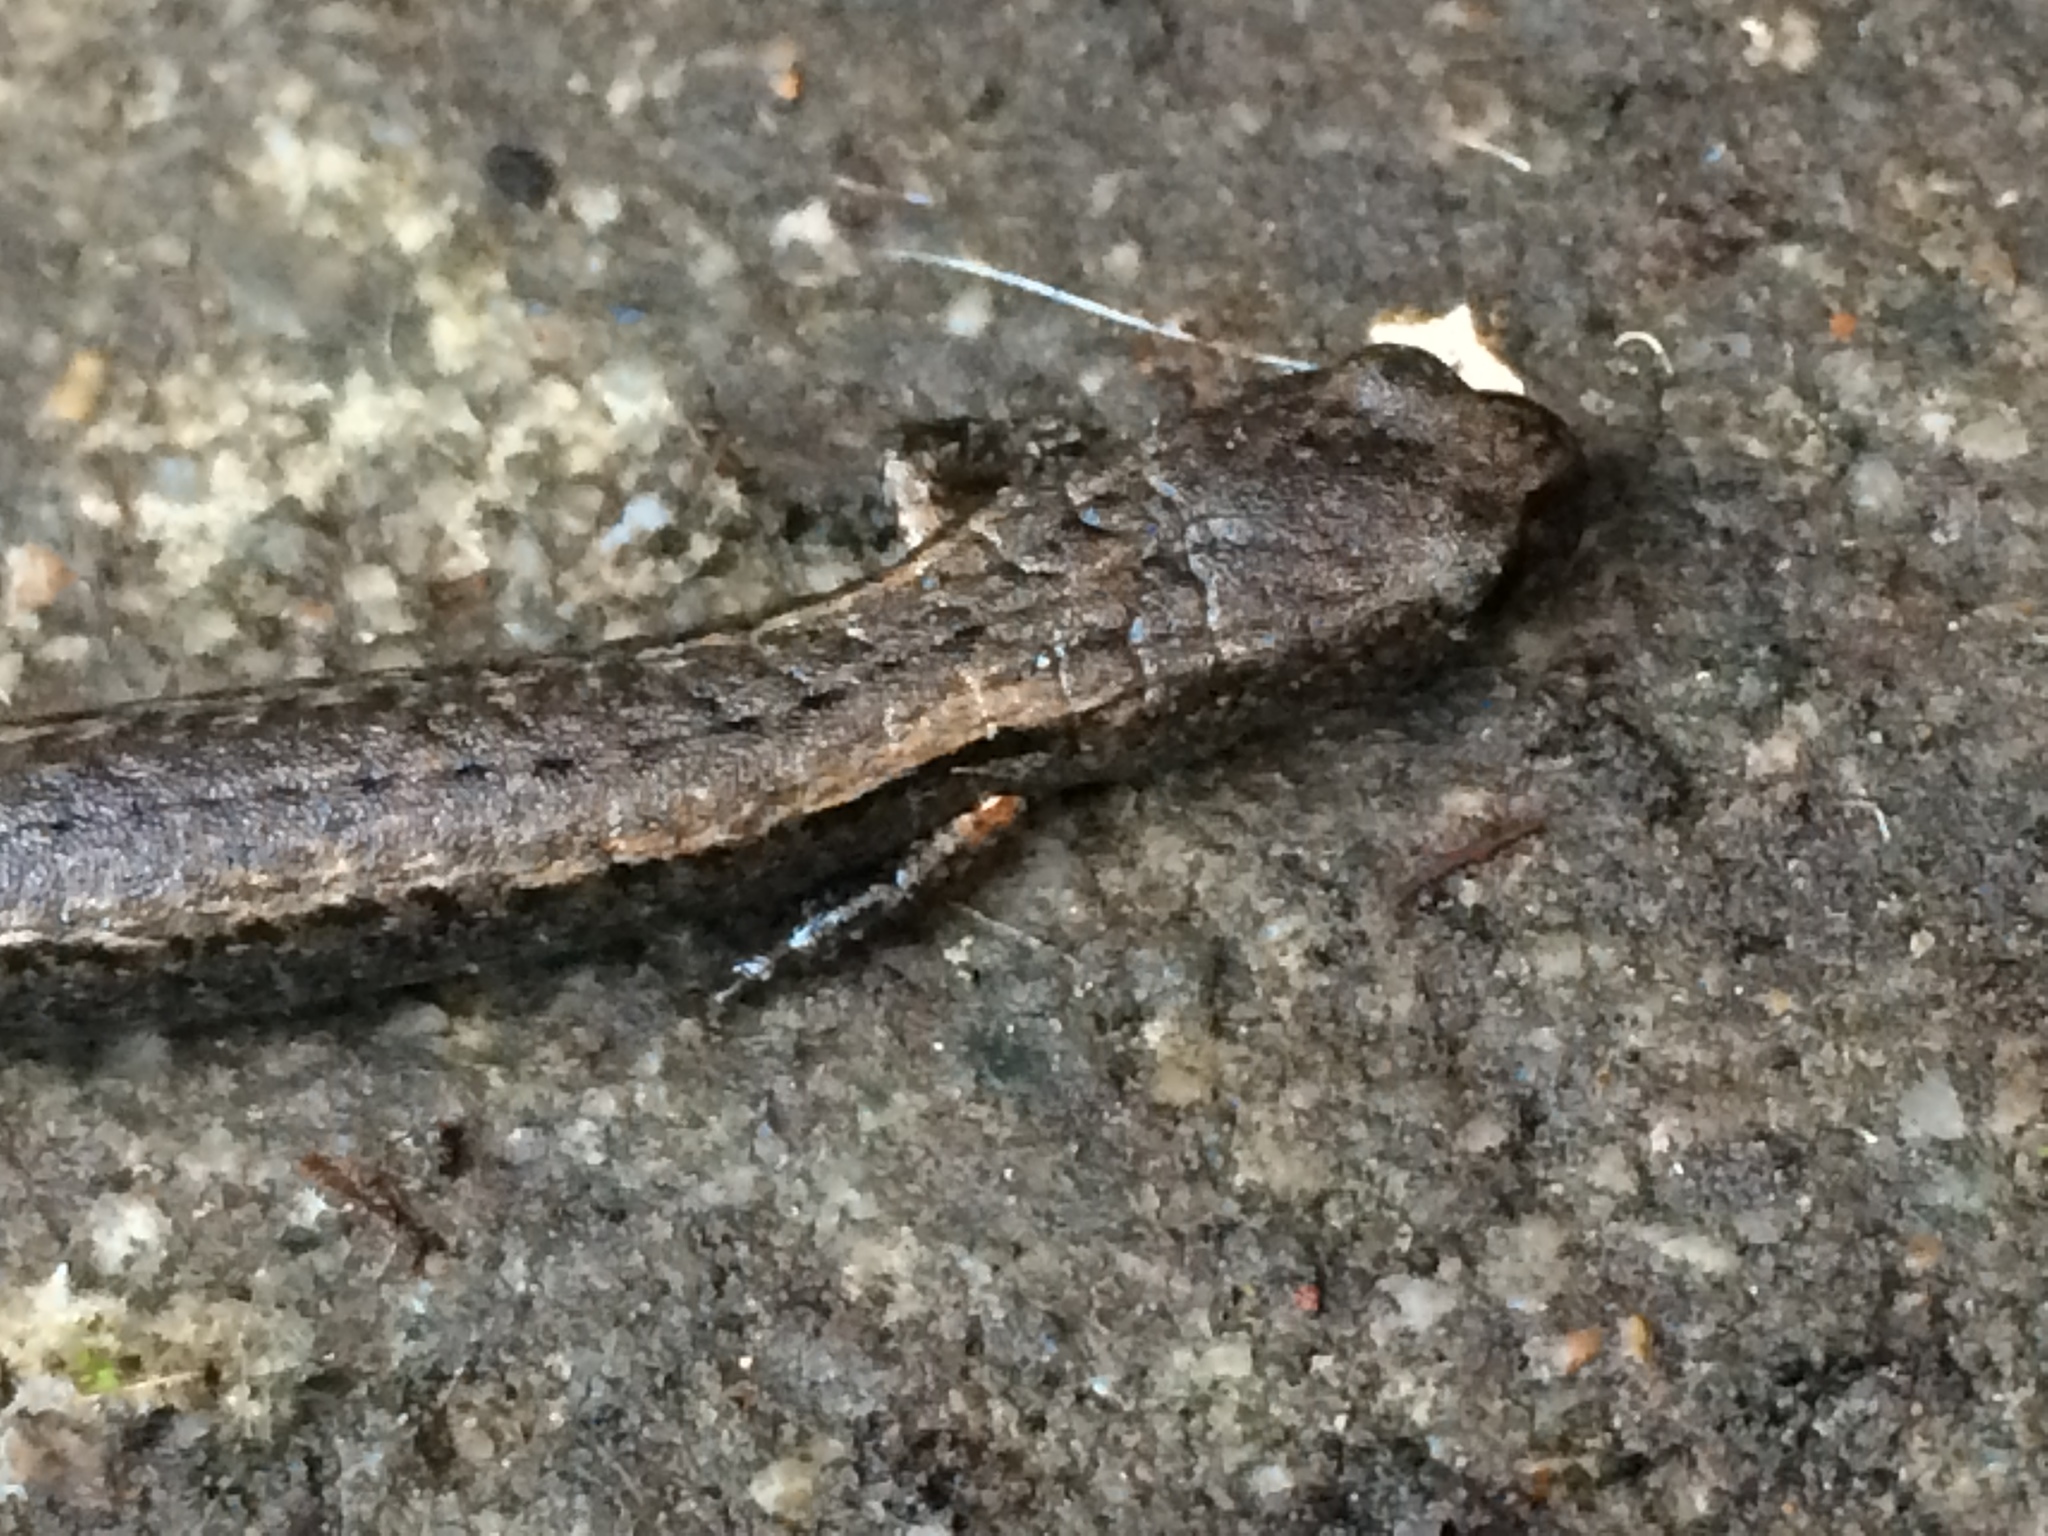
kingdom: Animalia
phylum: Chordata
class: Amphibia
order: Caudata
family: Plethodontidae
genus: Batrachoseps
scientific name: Batrachoseps attenuatus
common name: California slender salamander
